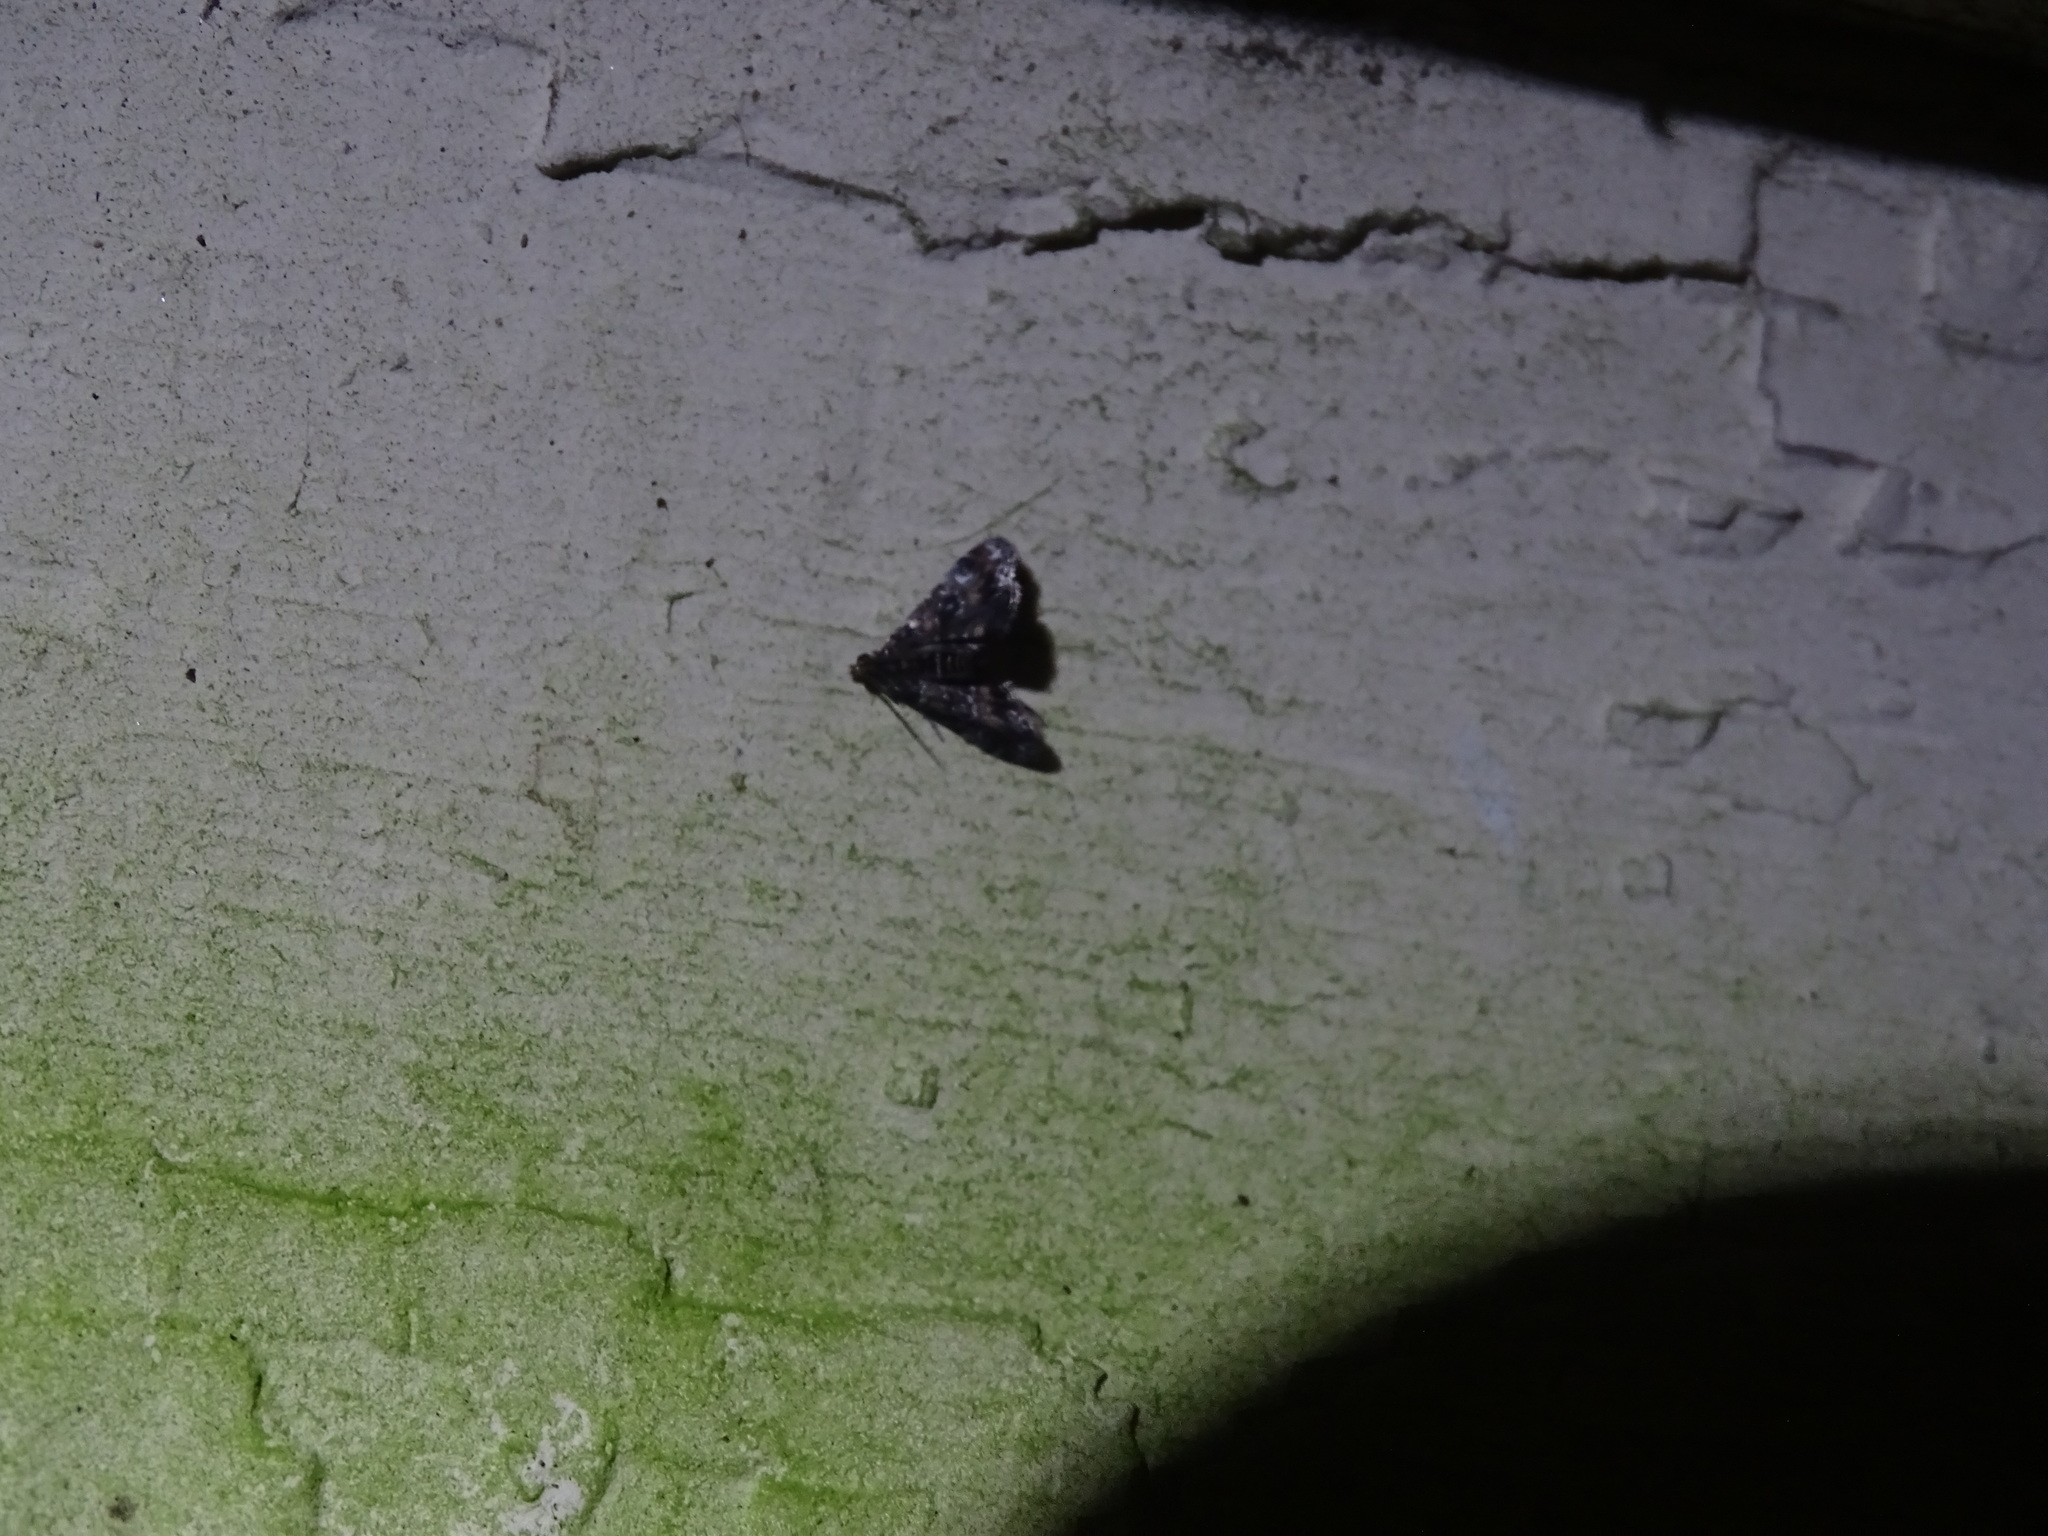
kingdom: Animalia
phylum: Arthropoda
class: Insecta
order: Lepidoptera
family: Crambidae
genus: Elophila
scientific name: Elophila obliteralis
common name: Waterlily leafcutter moth
